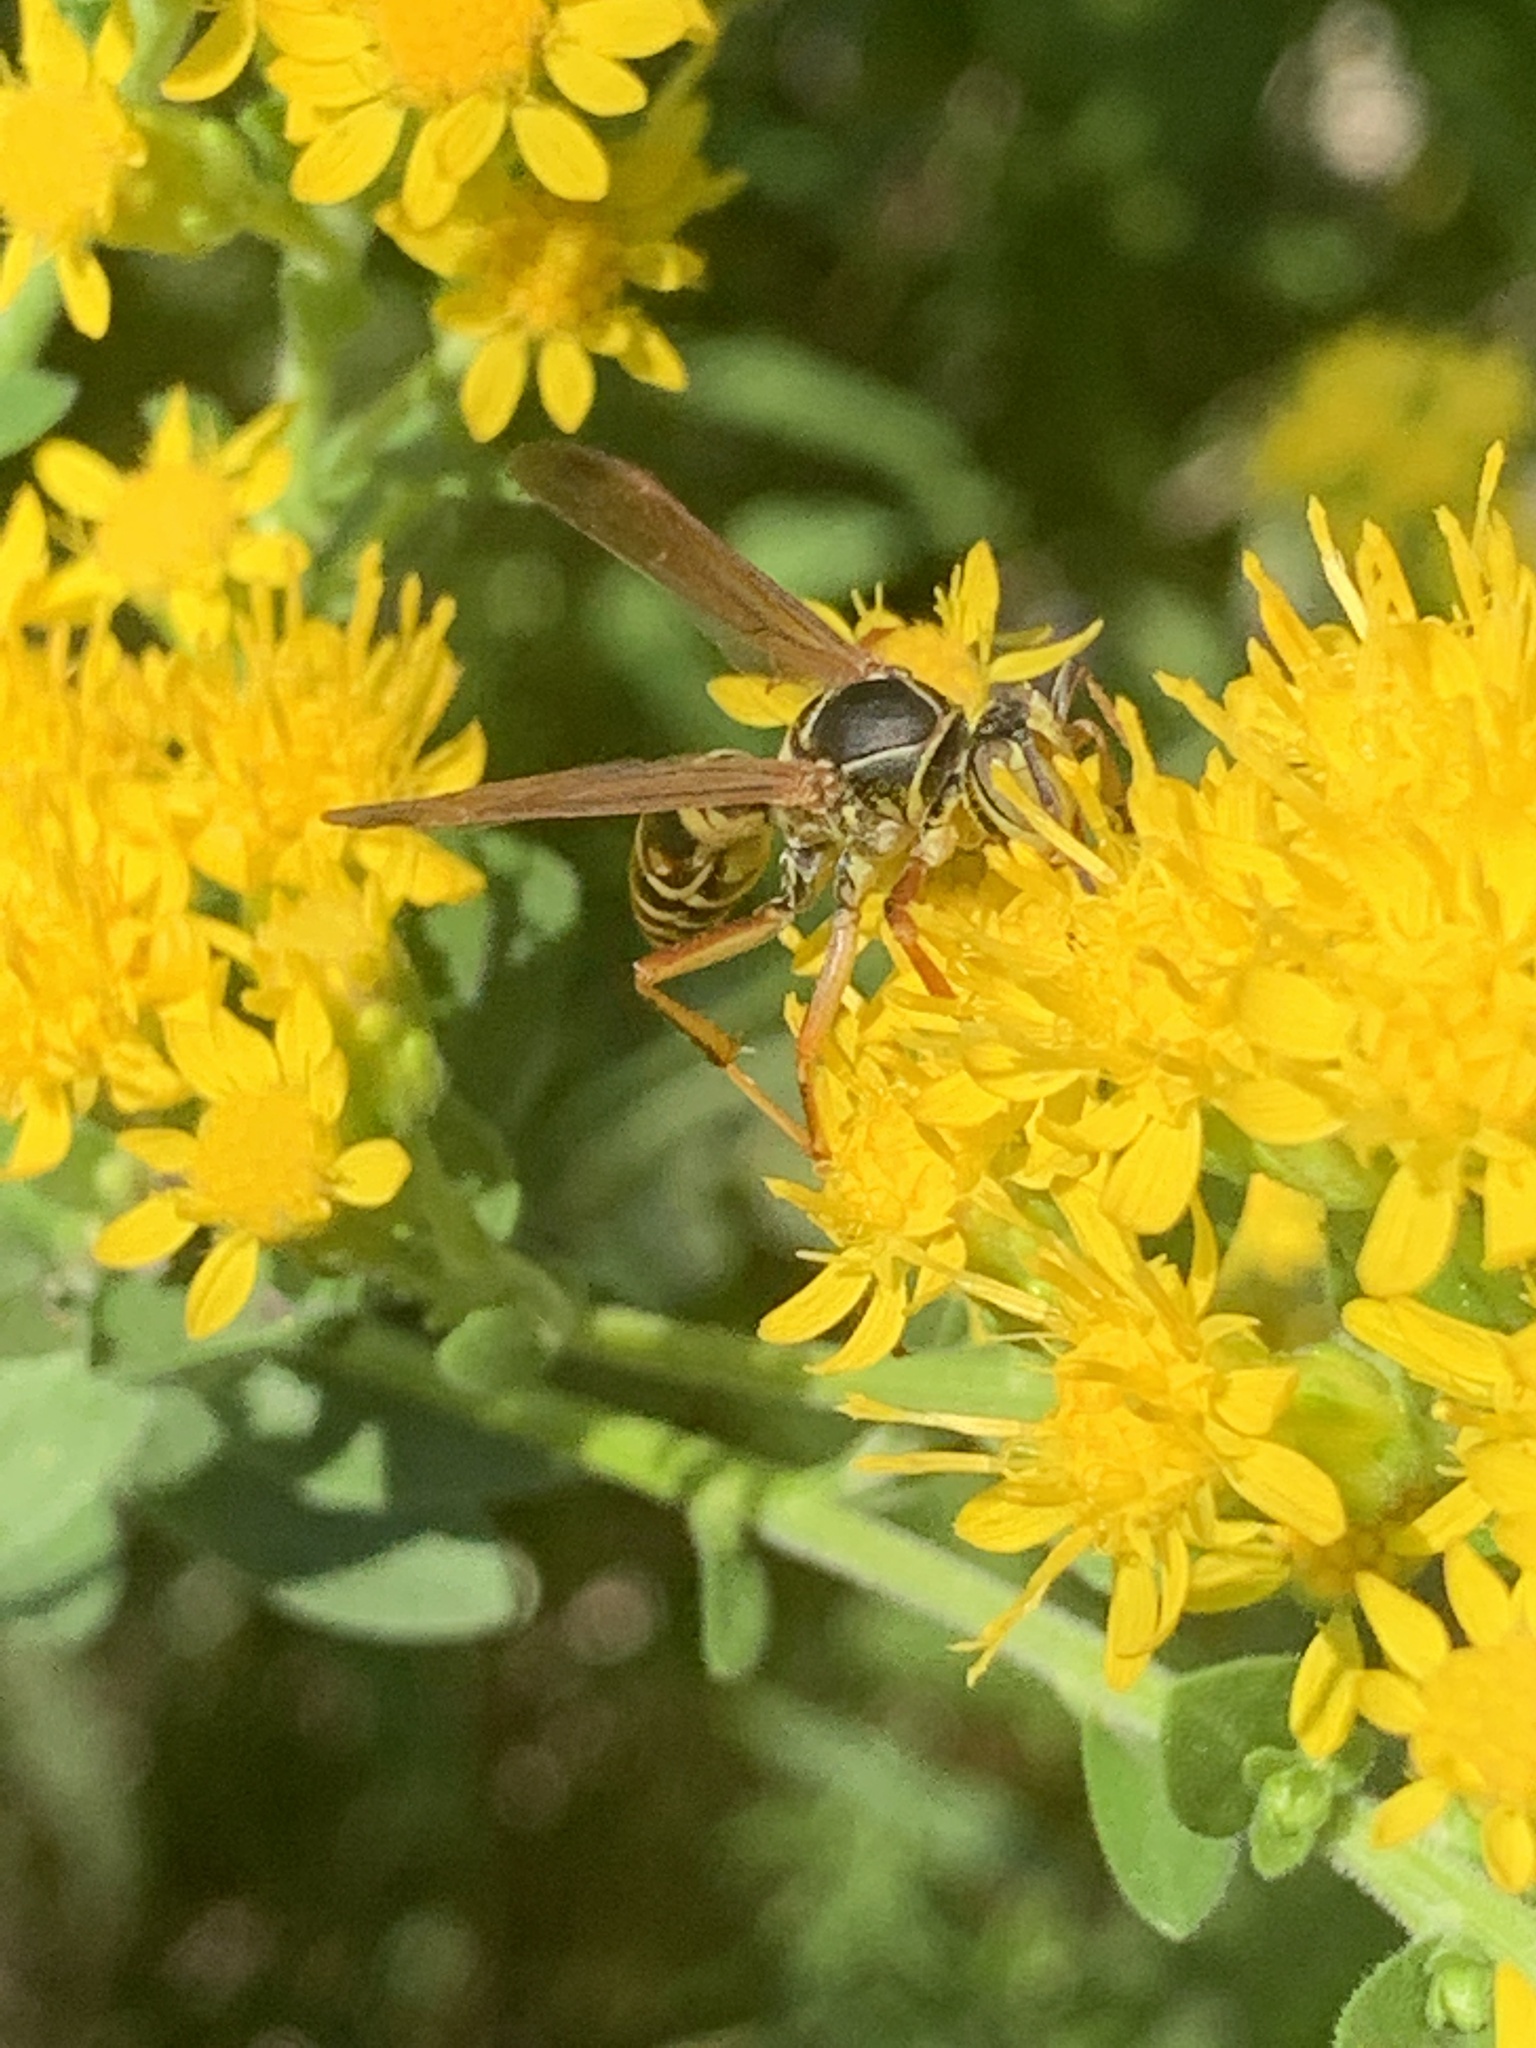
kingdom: Animalia
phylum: Arthropoda
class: Insecta
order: Hymenoptera
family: Eumenidae
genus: Polistes
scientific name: Polistes fuscatus
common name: Dark paper wasp
